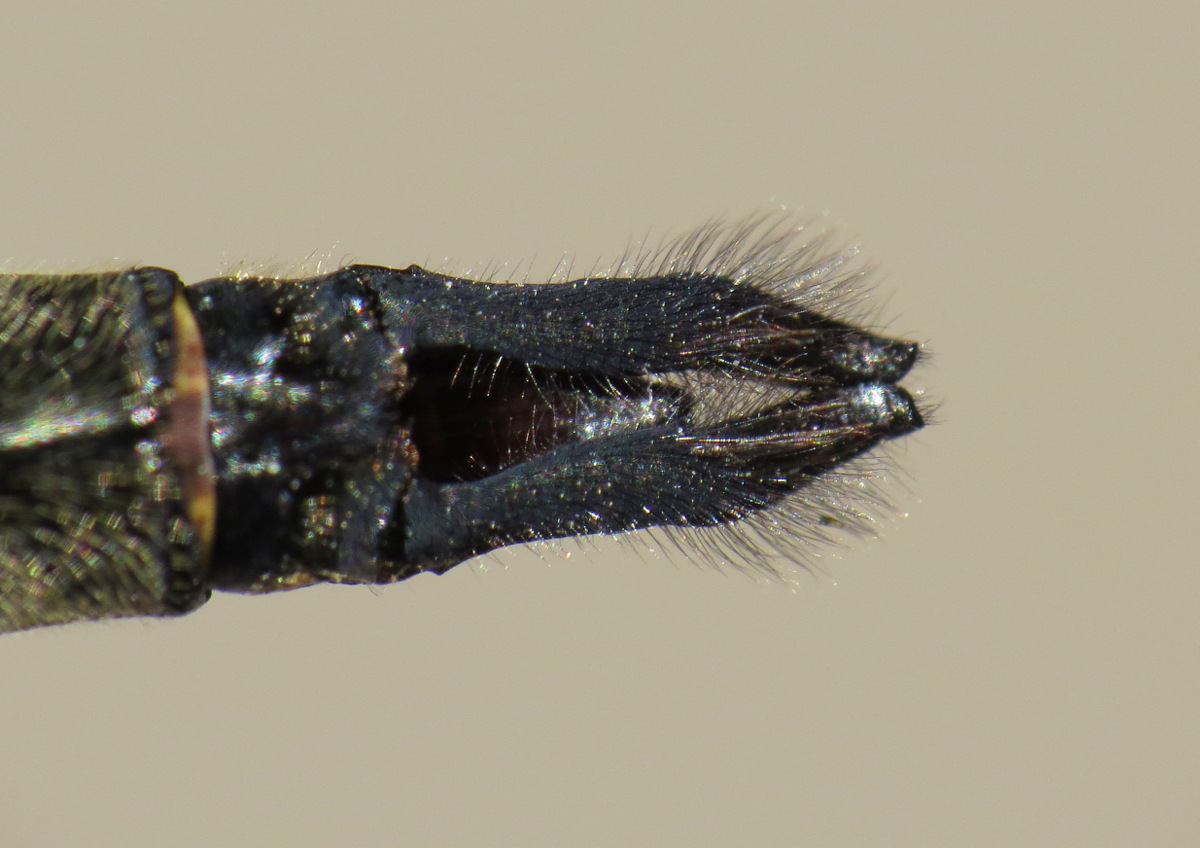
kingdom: Animalia
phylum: Arthropoda
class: Insecta
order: Odonata
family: Corduliidae
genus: Somatochlora
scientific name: Somatochlora williamsoni
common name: Williamson's emerald
